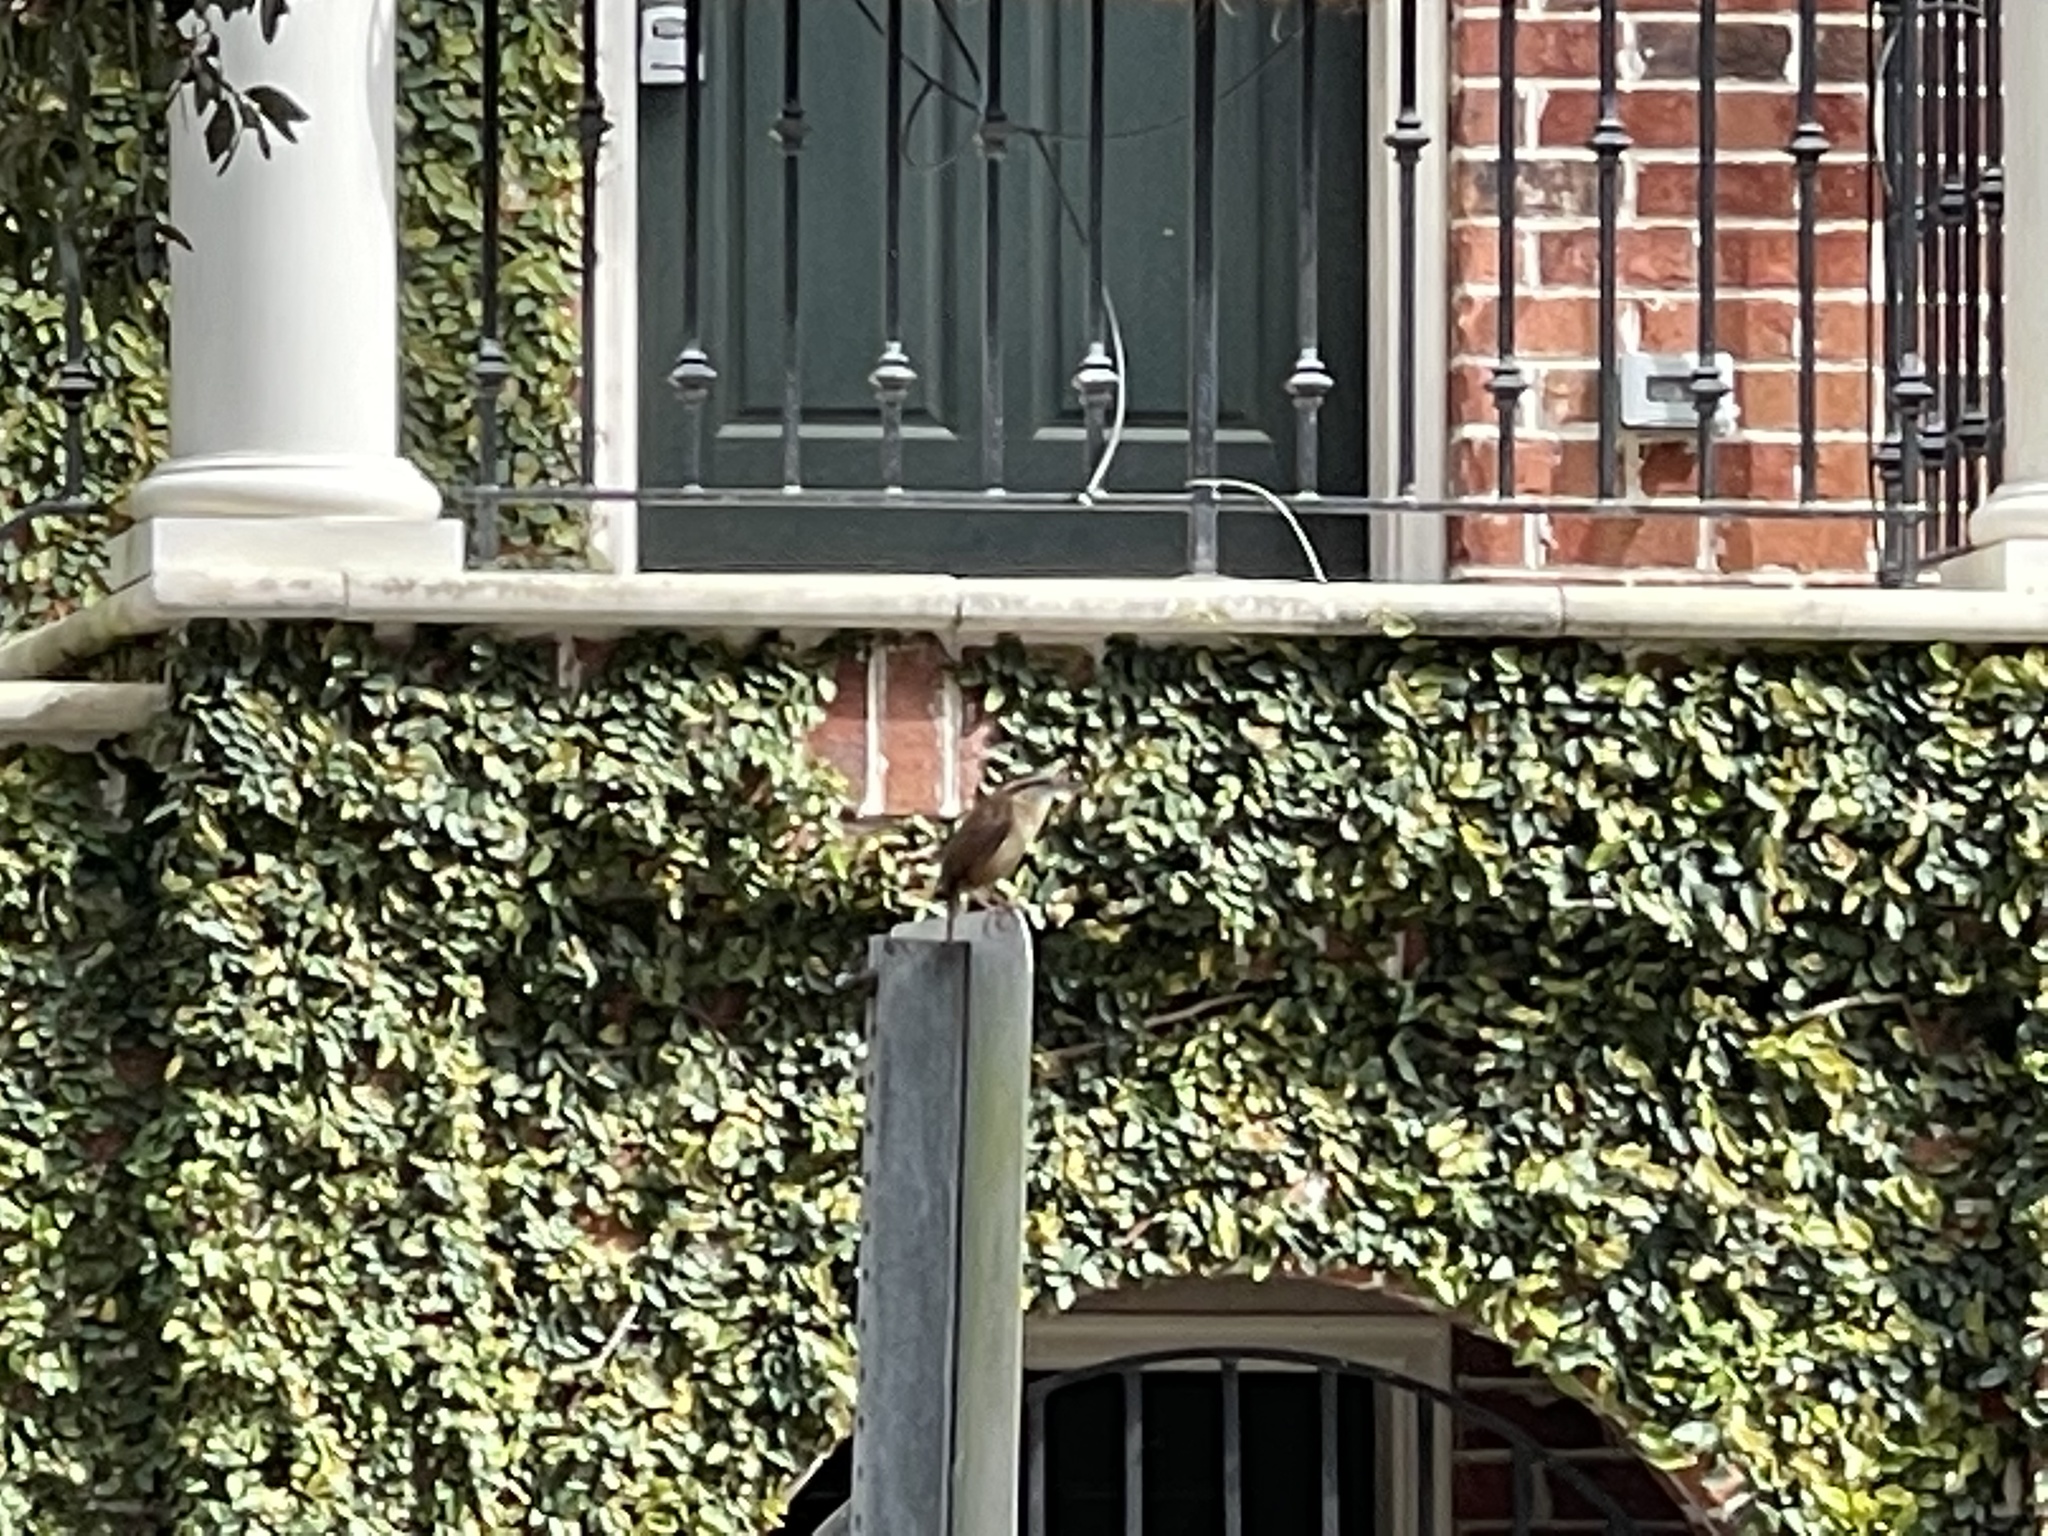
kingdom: Animalia
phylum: Chordata
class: Aves
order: Passeriformes
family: Troglodytidae
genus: Thryothorus
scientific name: Thryothorus ludovicianus
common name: Carolina wren
